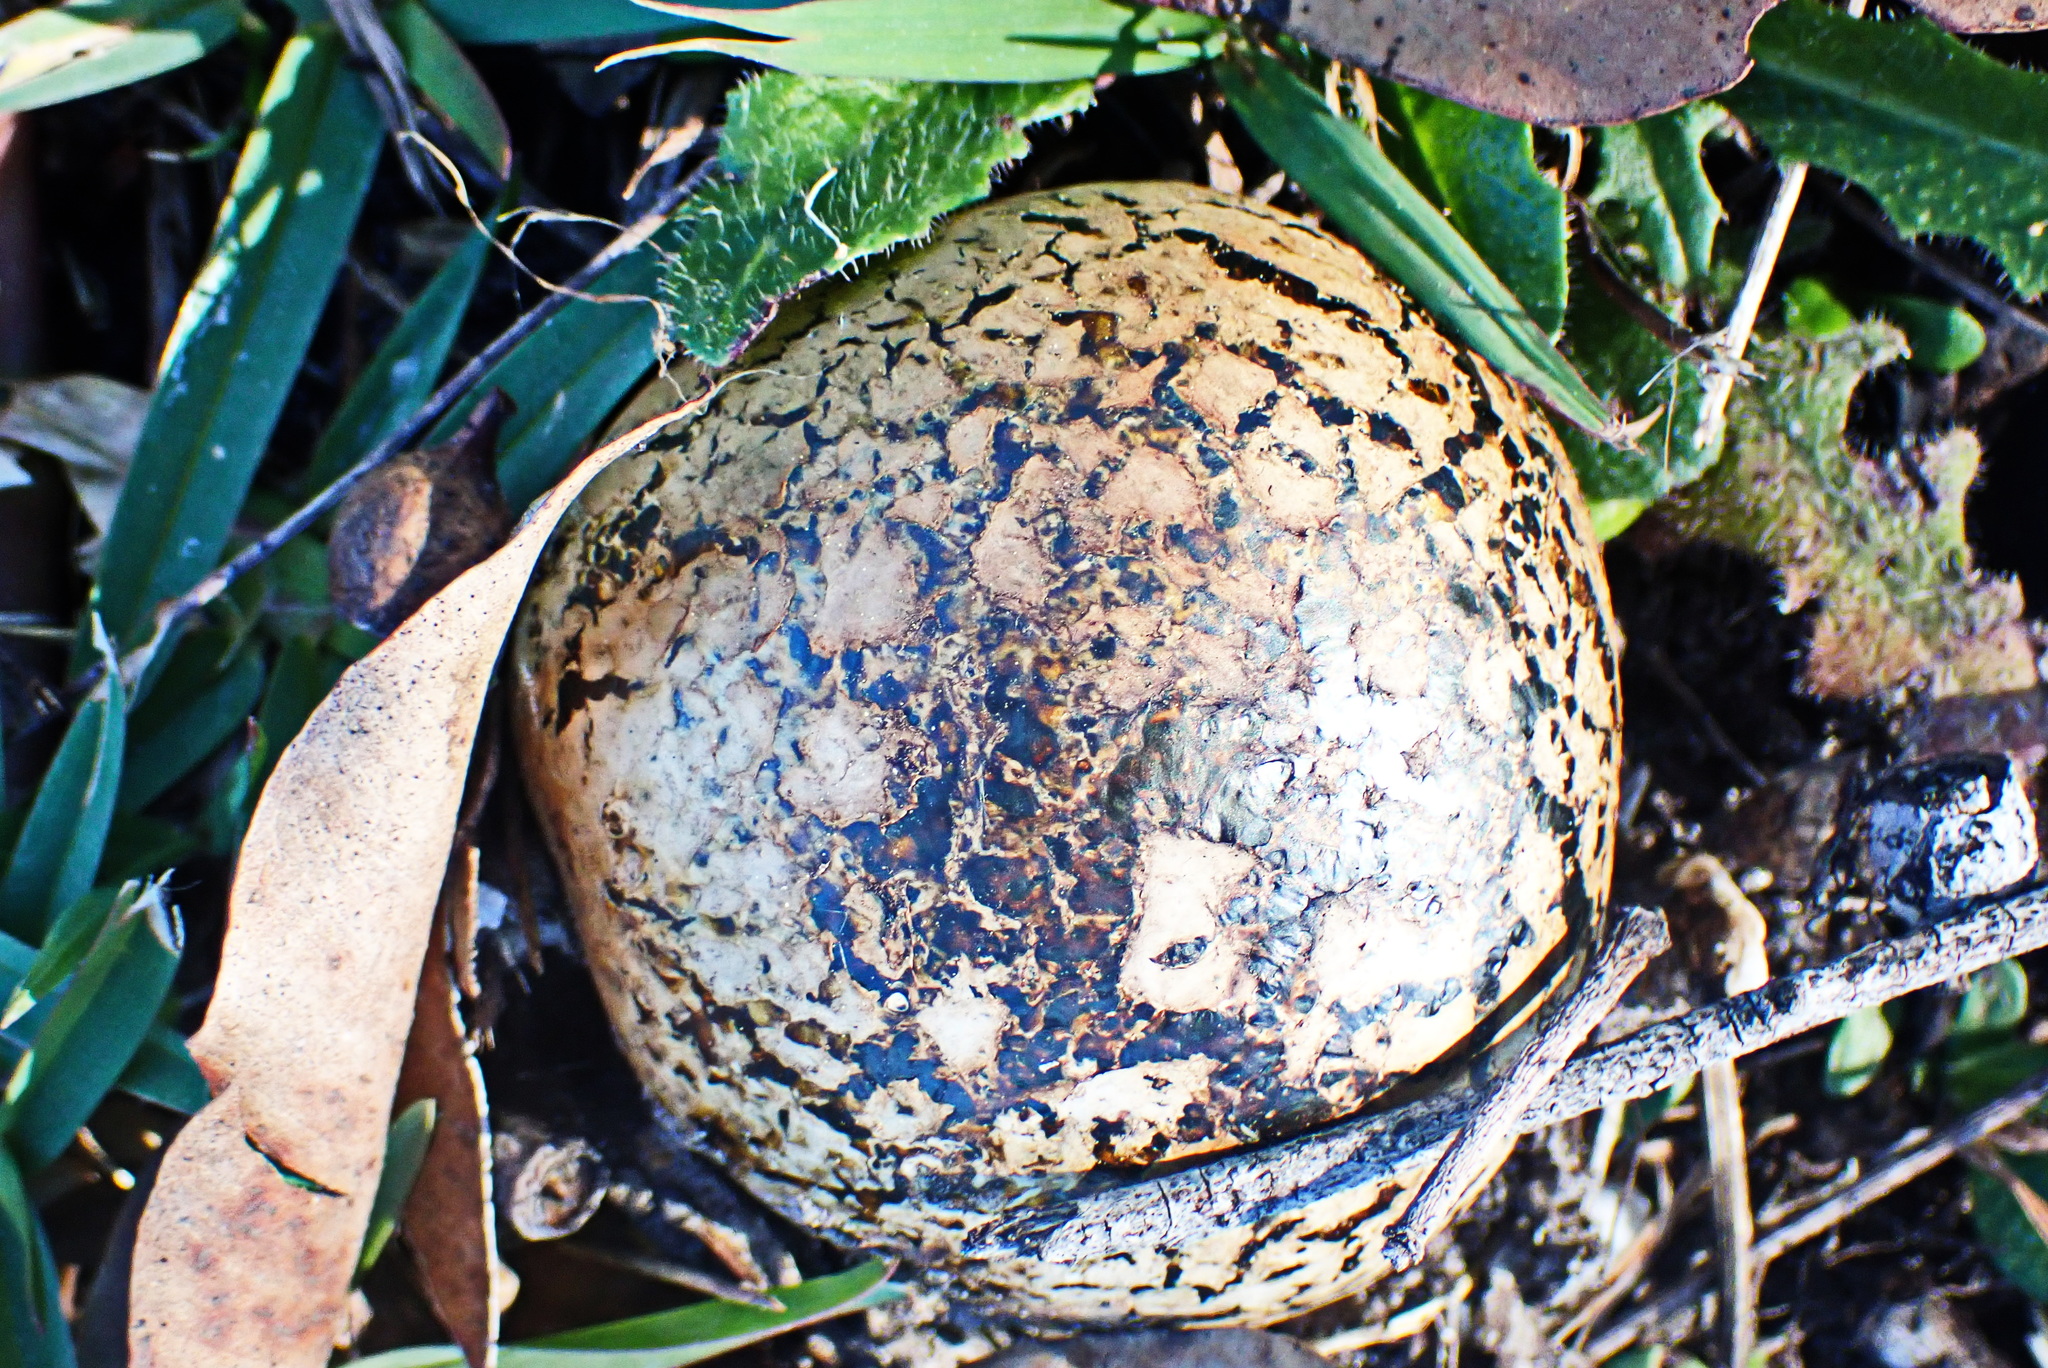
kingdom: Fungi
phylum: Basidiomycota
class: Agaricomycetes
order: Boletales
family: Sclerodermataceae
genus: Pisolithus
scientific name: Pisolithus arhizus
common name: Dyeball
